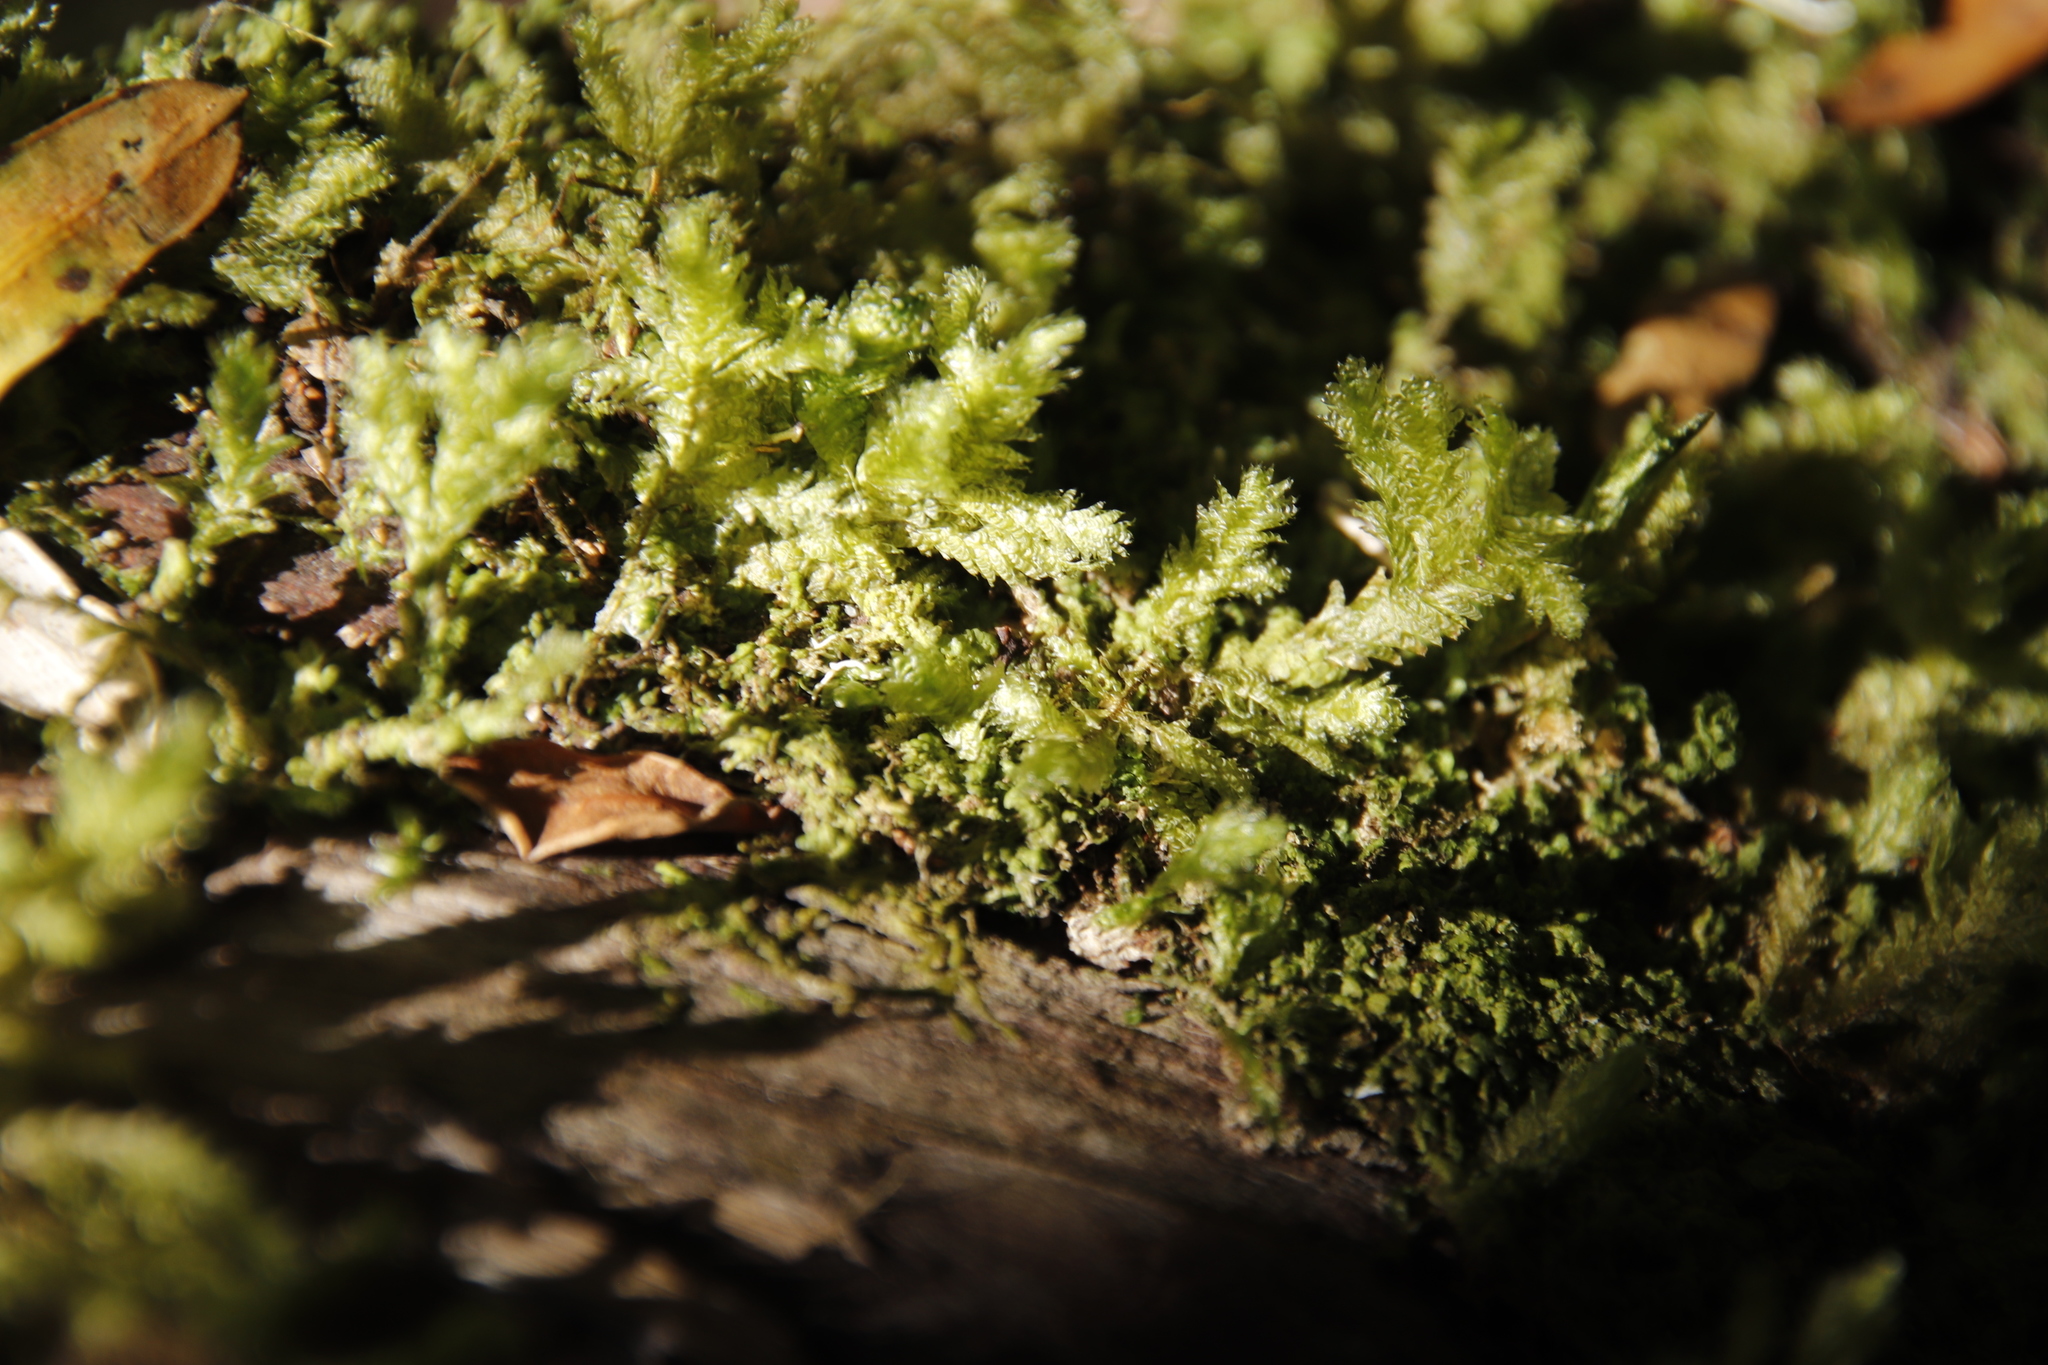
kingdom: Plantae
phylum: Bryophyta
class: Bryopsida
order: Hypnales
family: Neckeraceae
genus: Alleniella
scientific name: Alleniella ehrenbergii
